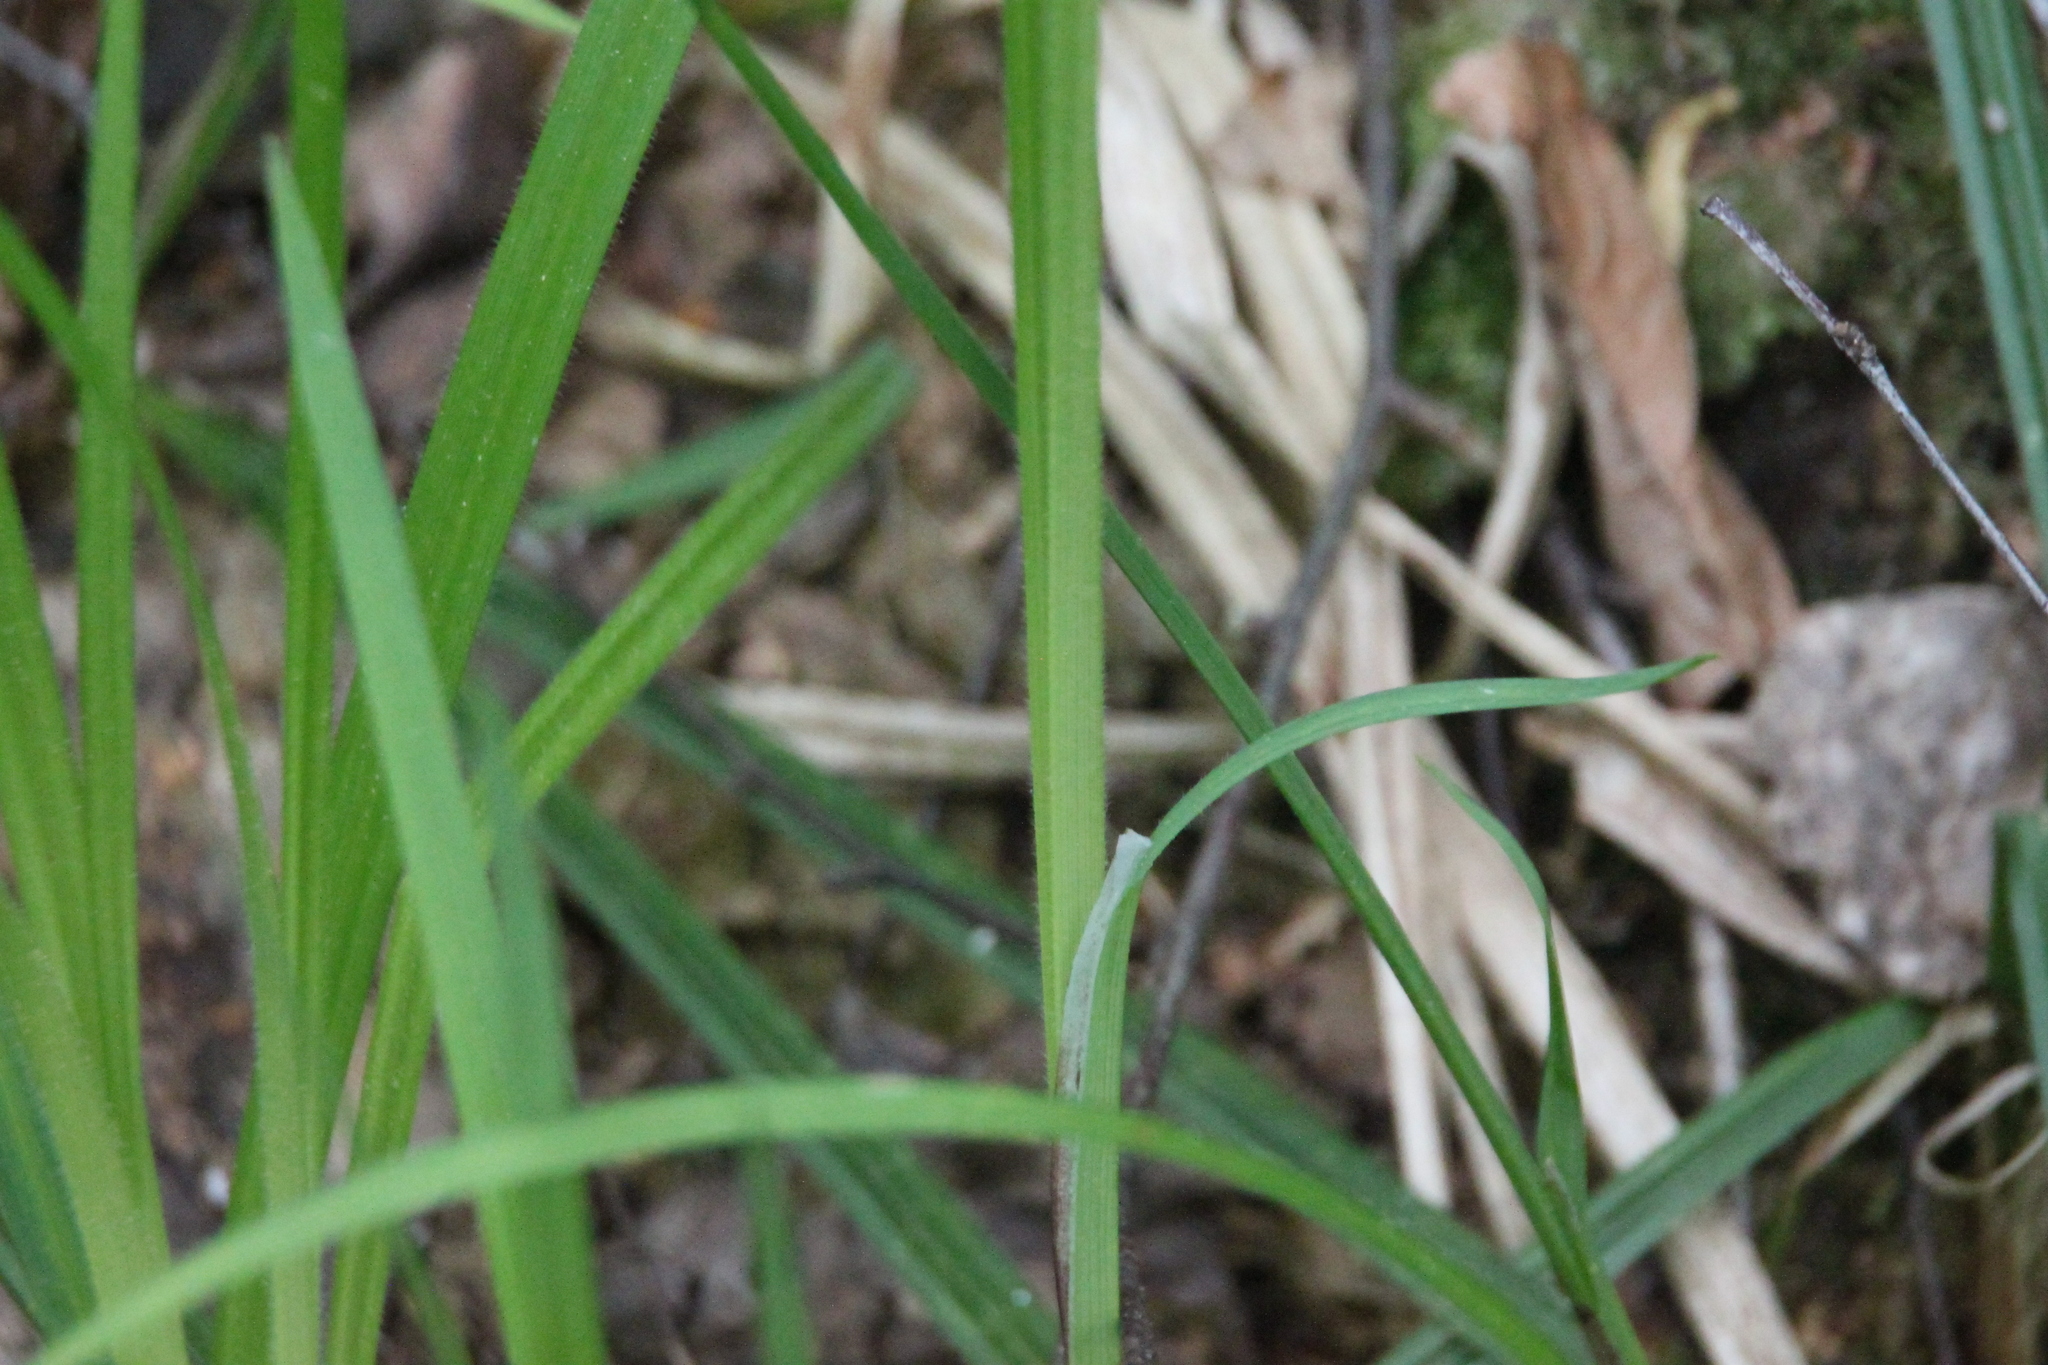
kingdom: Plantae
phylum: Tracheophyta
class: Liliopsida
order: Poales
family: Cyperaceae
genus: Carex
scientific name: Carex pilosa
